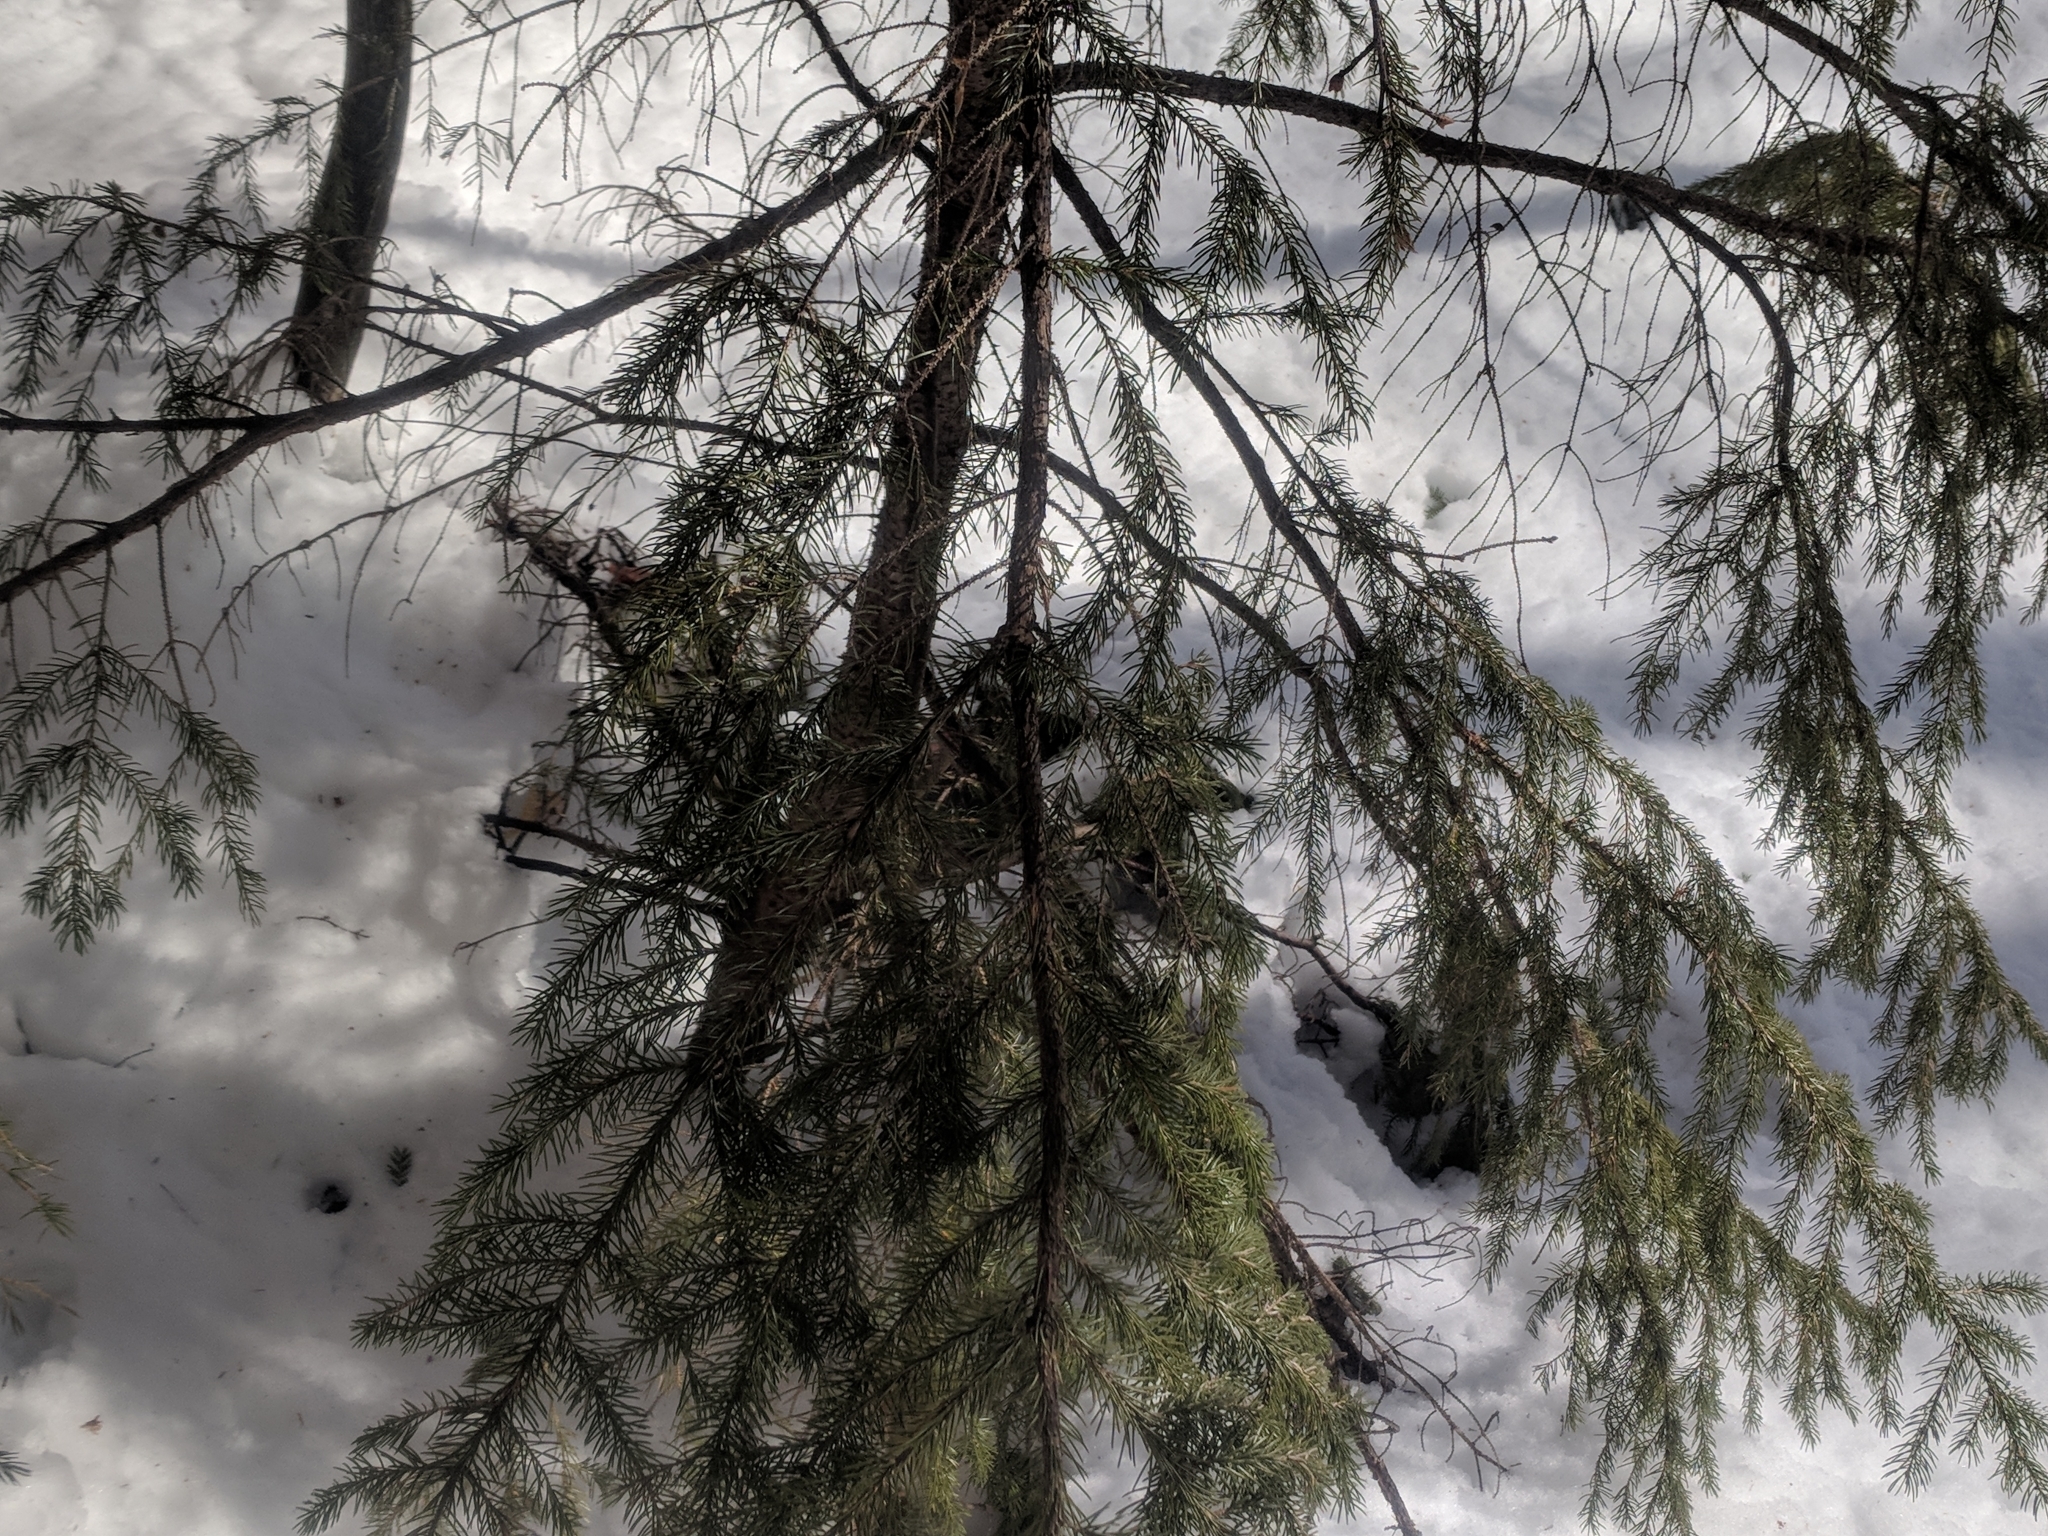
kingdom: Plantae
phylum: Tracheophyta
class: Pinopsida
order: Pinales
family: Pinaceae
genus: Picea
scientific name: Picea rubens
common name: Red spruce
